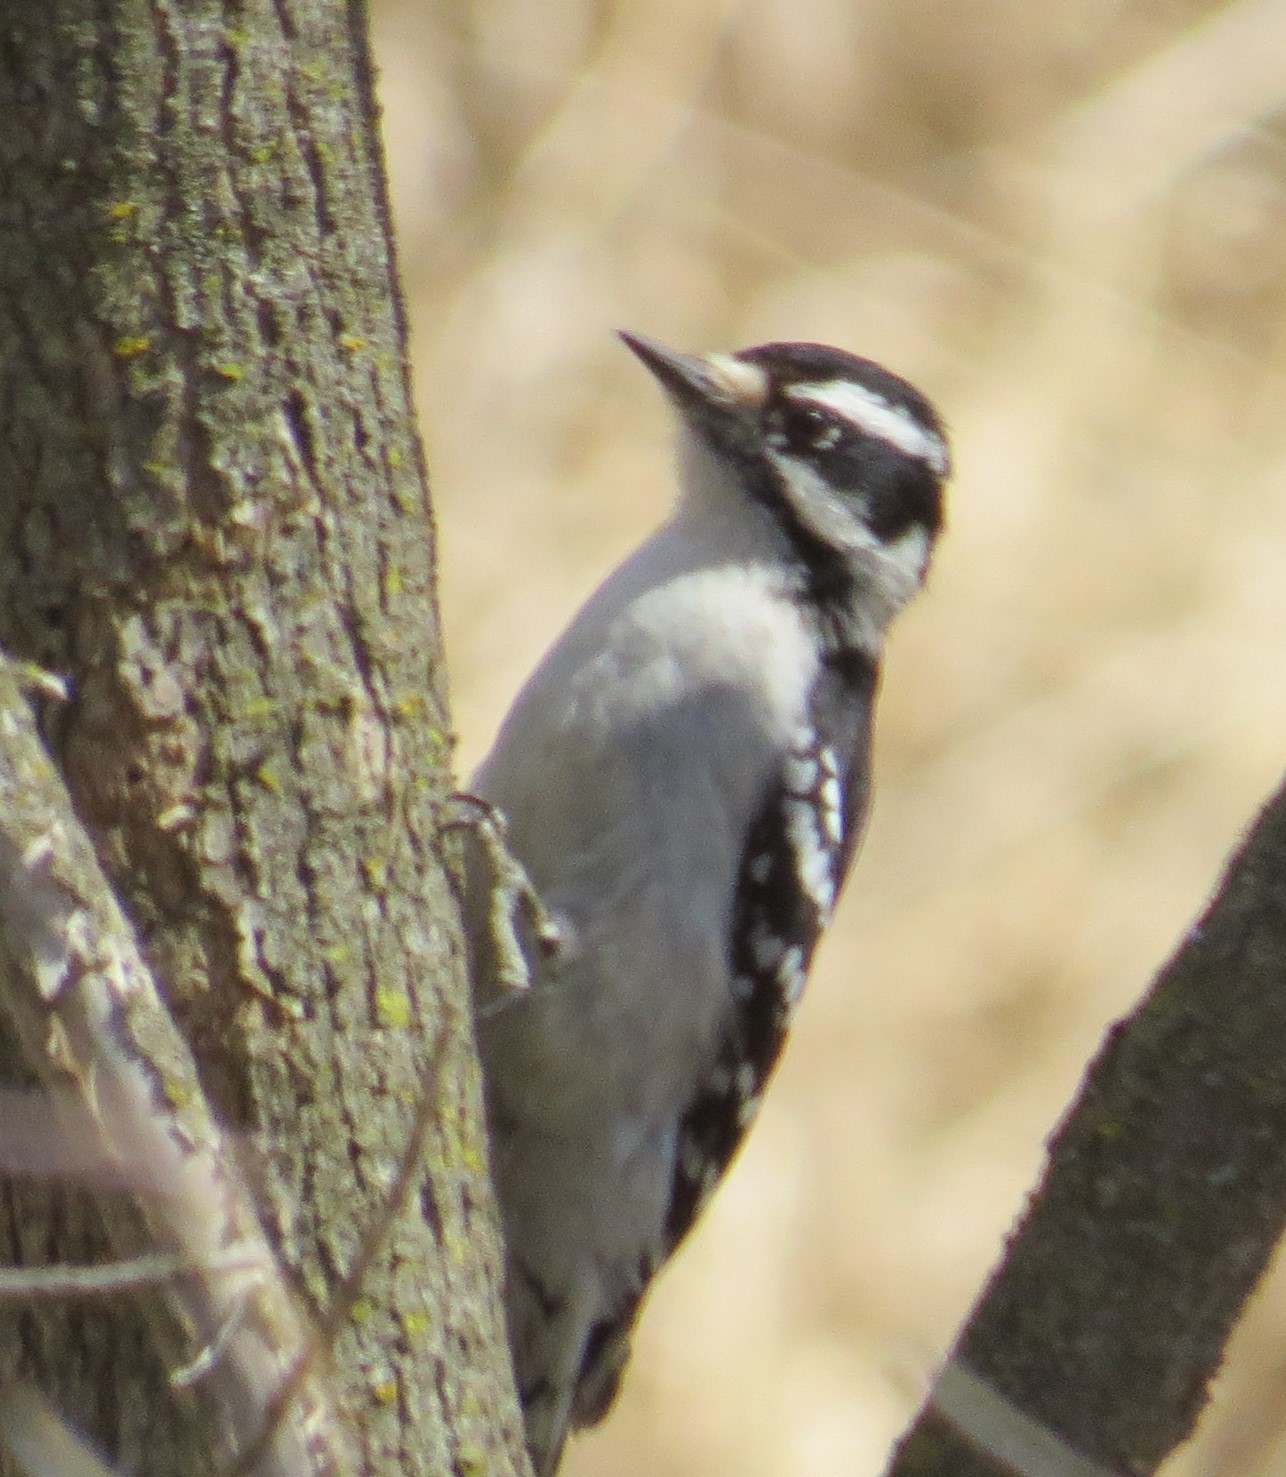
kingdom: Animalia
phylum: Chordata
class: Aves
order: Piciformes
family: Picidae
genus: Dryobates
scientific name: Dryobates pubescens
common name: Downy woodpecker
